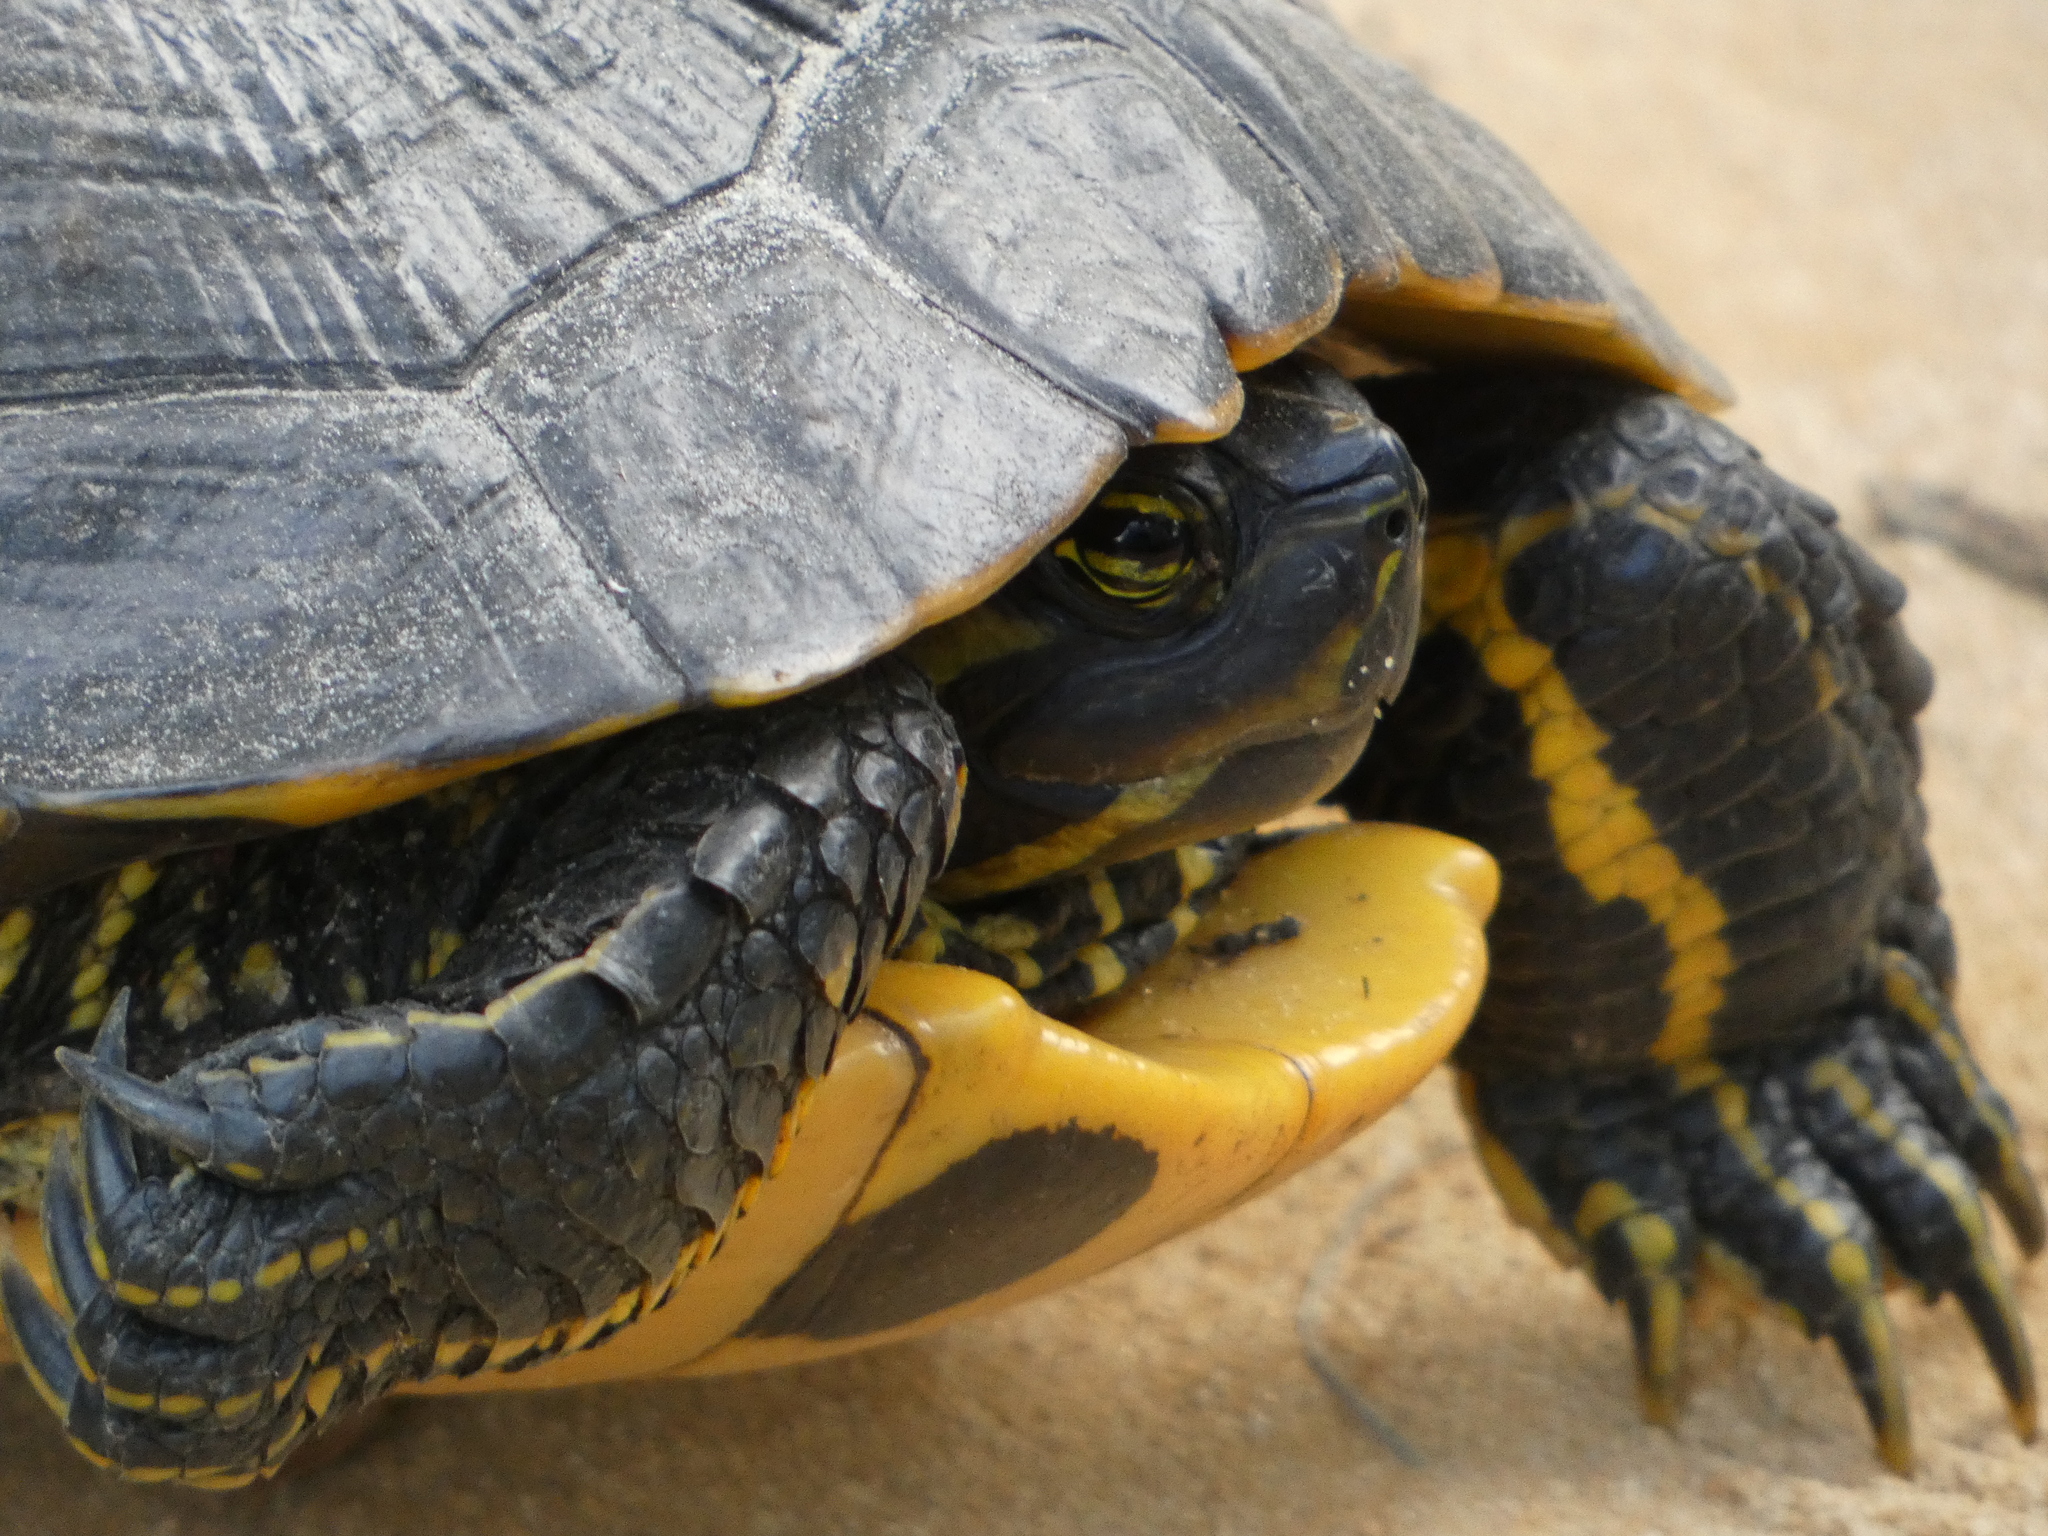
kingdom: Animalia
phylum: Chordata
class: Testudines
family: Emydidae
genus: Trachemys
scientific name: Trachemys scripta
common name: Slider
